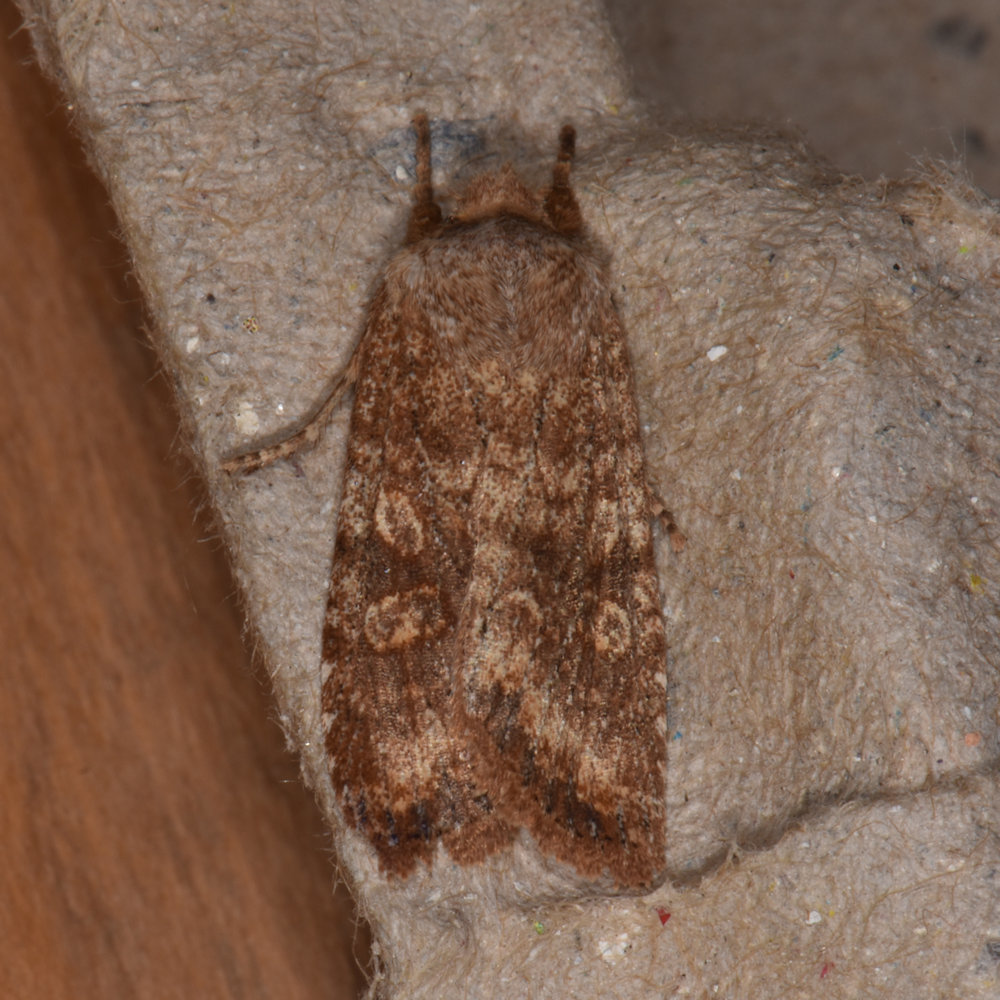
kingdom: Animalia
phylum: Arthropoda
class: Insecta
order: Lepidoptera
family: Noctuidae
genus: Lithophane
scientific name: Lithophane semiusta
